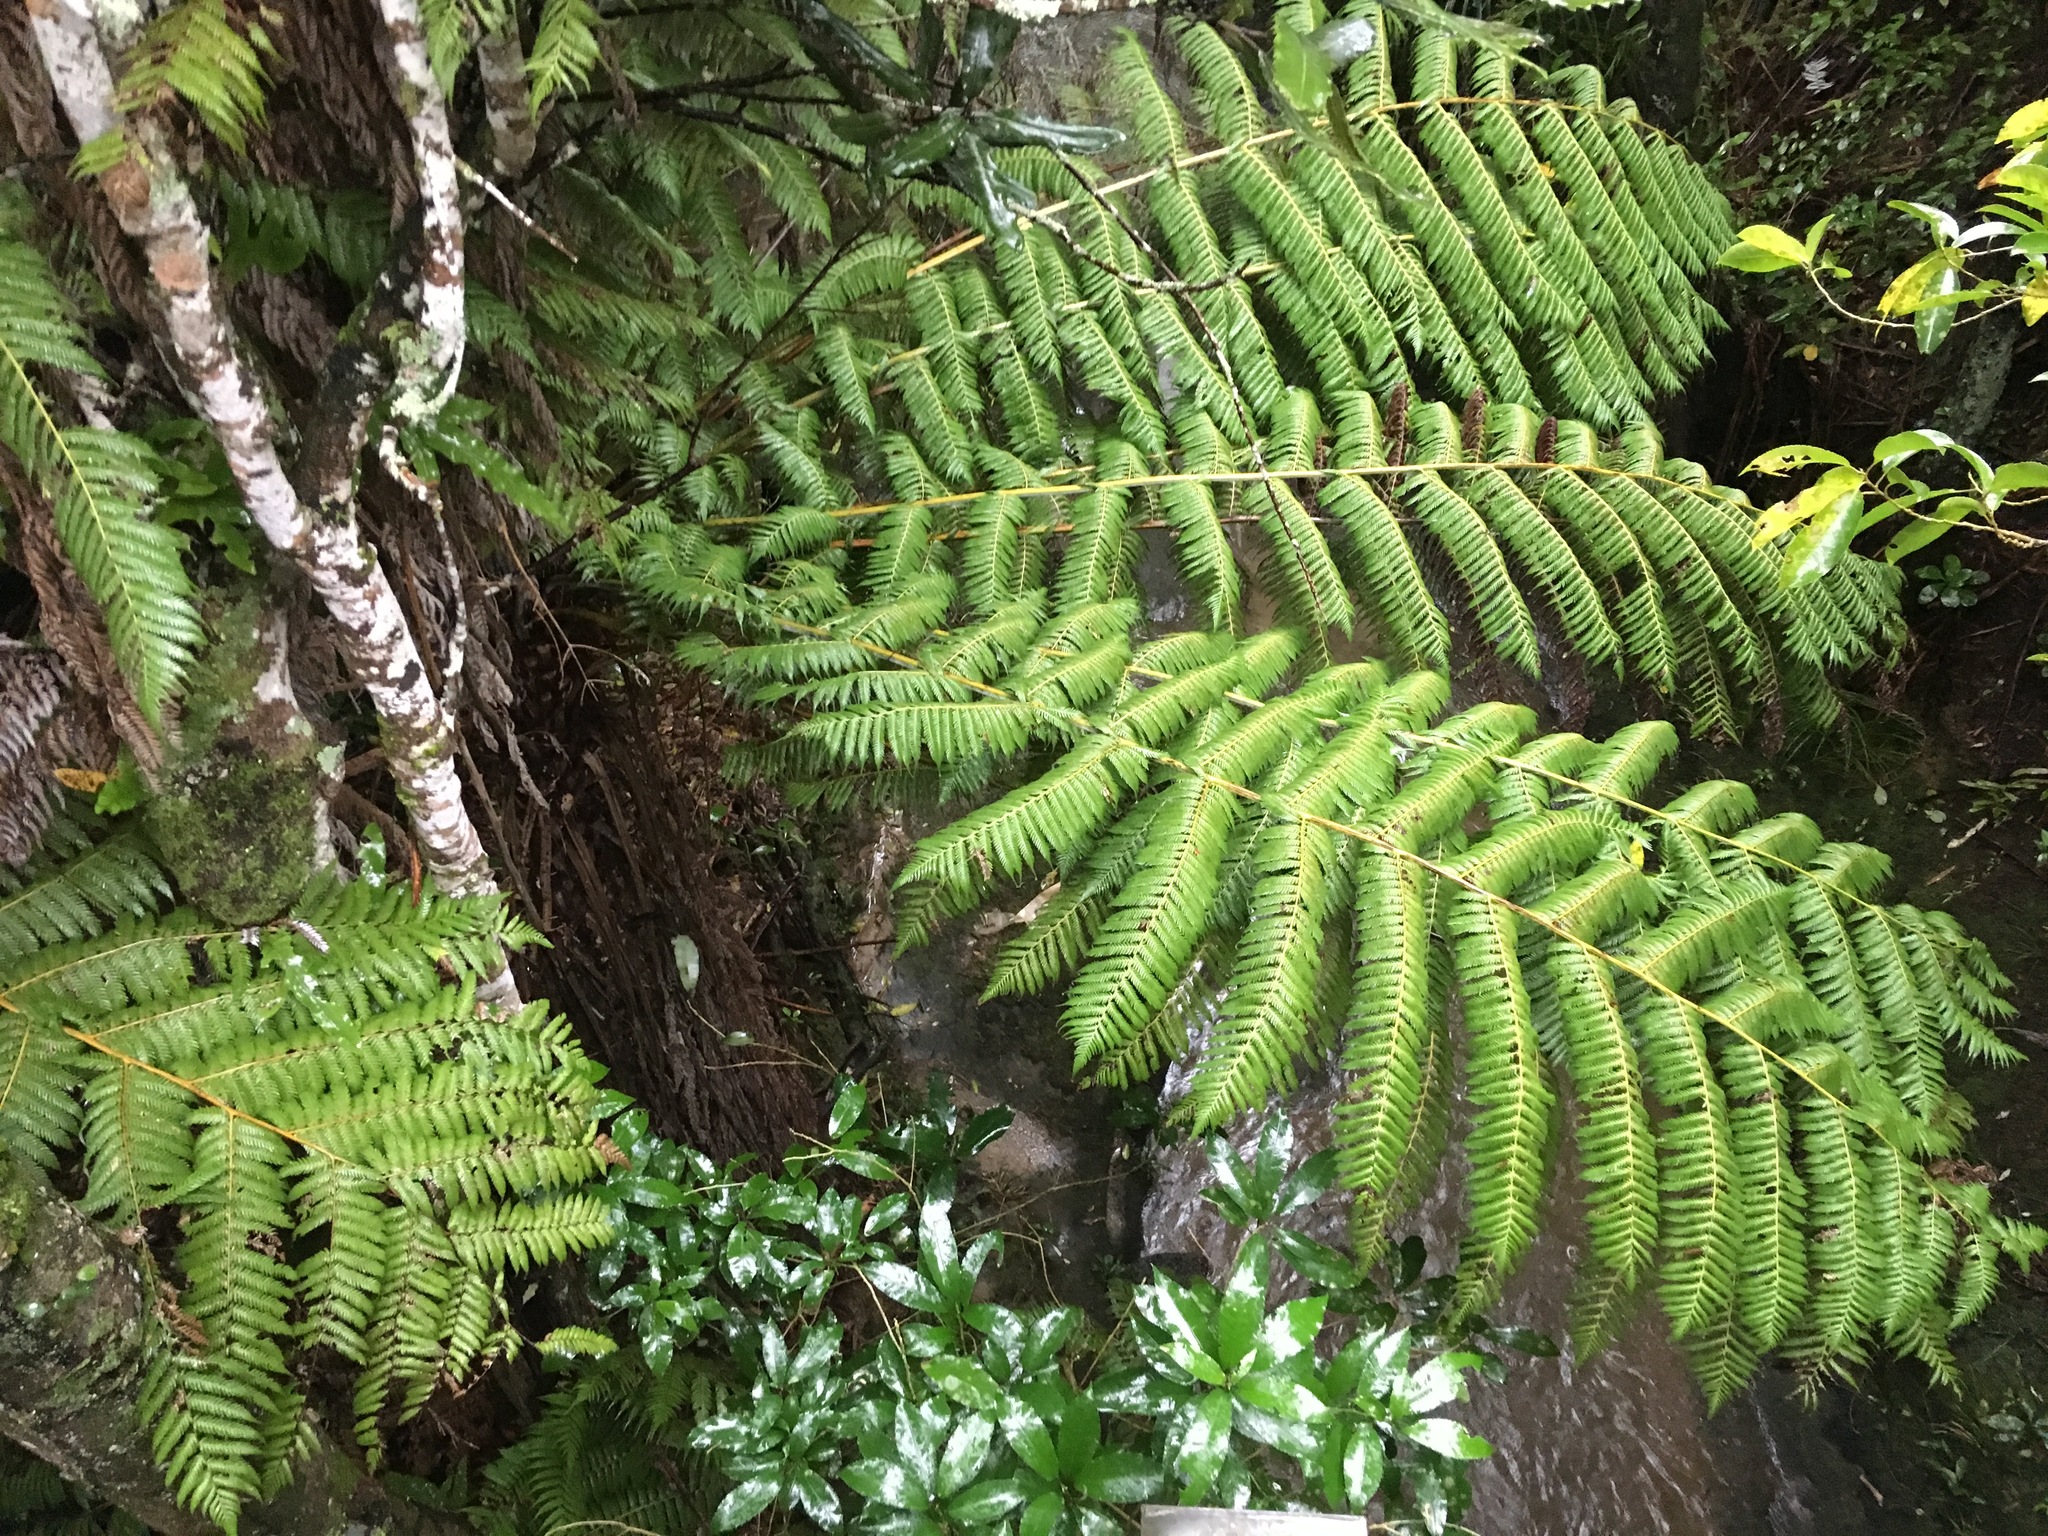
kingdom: Plantae
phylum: Tracheophyta
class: Polypodiopsida
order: Cyatheales
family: Cyatheaceae
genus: Alsophila
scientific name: Alsophila dealbata
